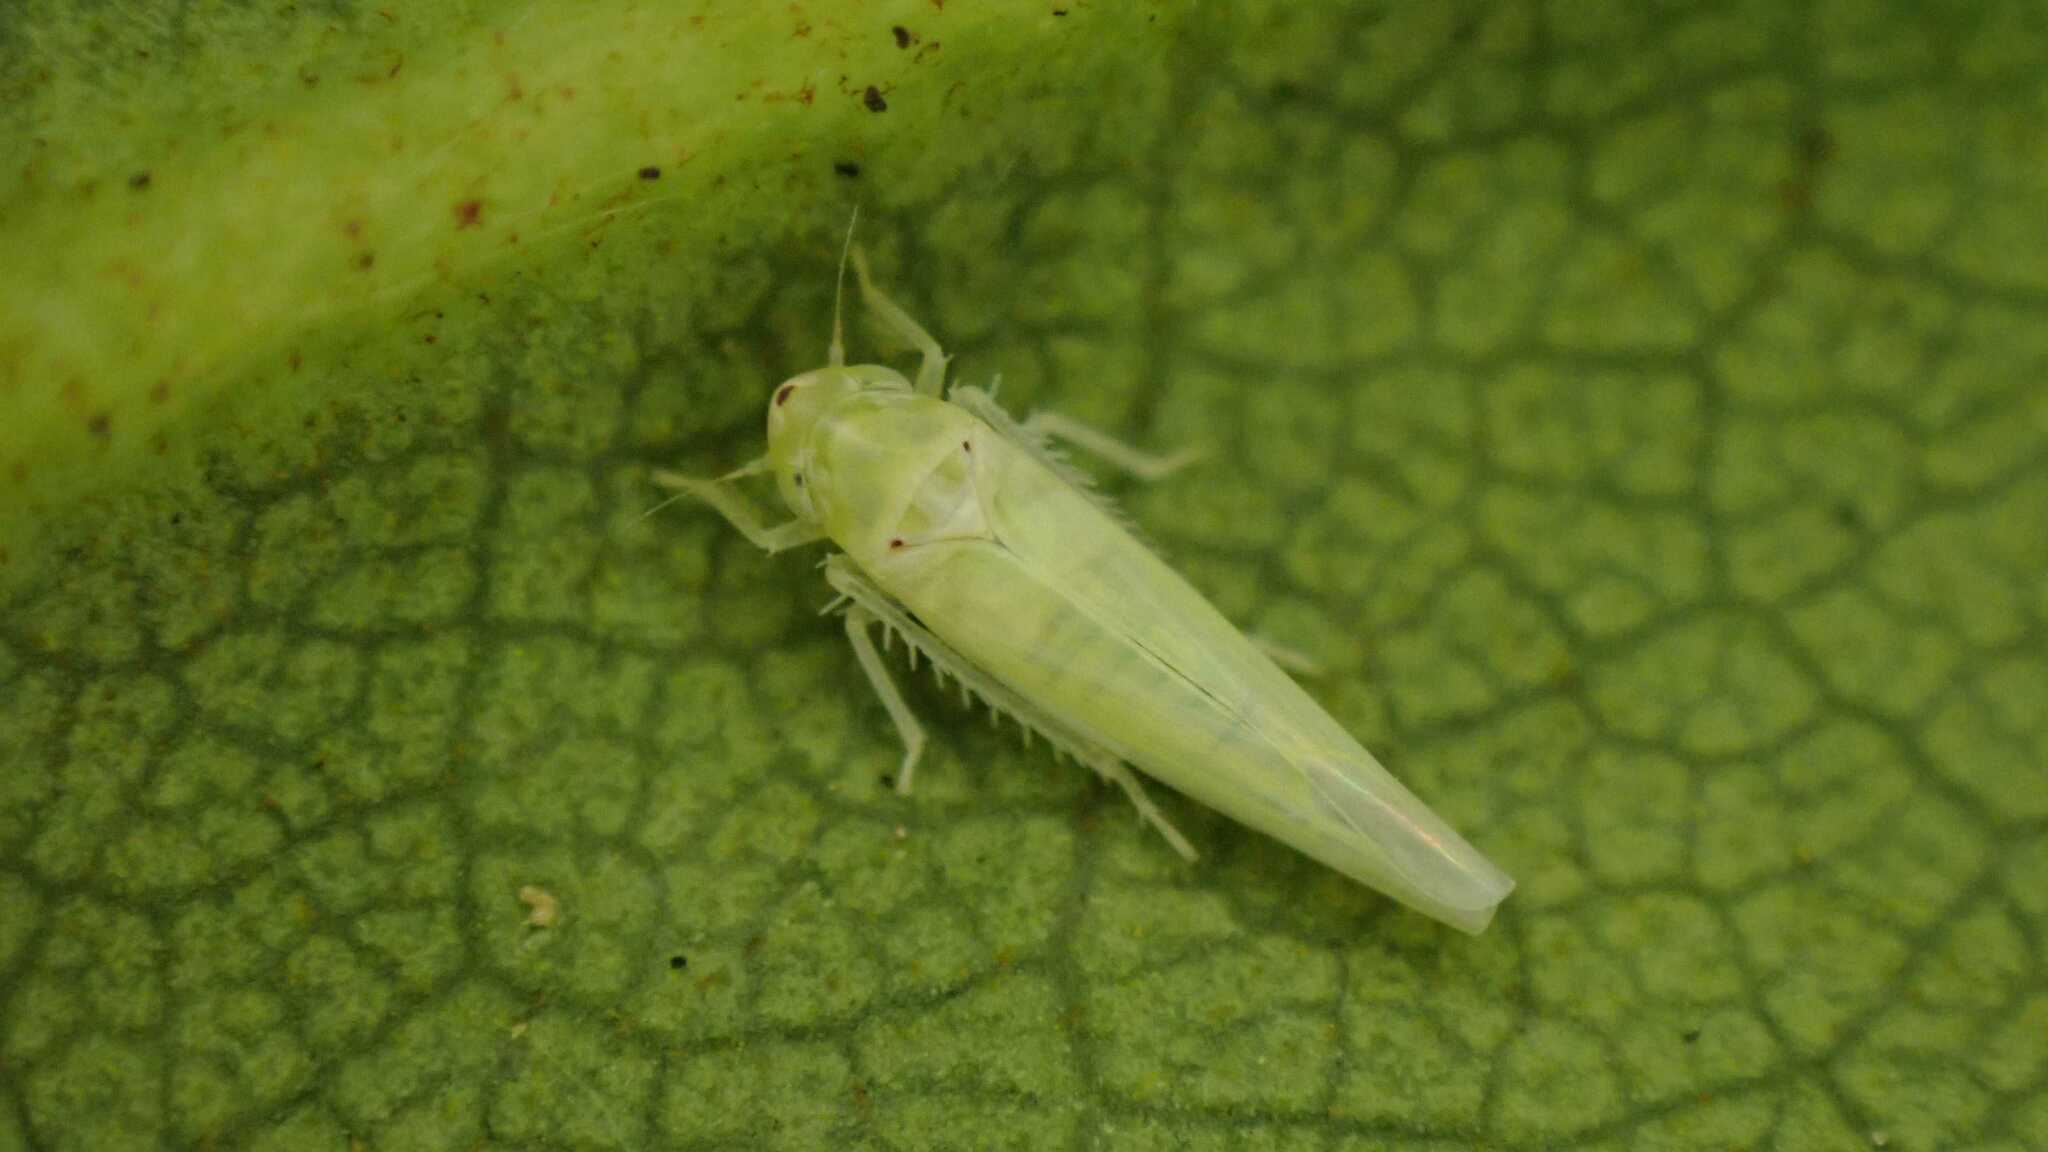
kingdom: Animalia
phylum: Arthropoda
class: Insecta
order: Hemiptera
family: Cicadellidae
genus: Zygina
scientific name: Zygina nivea
